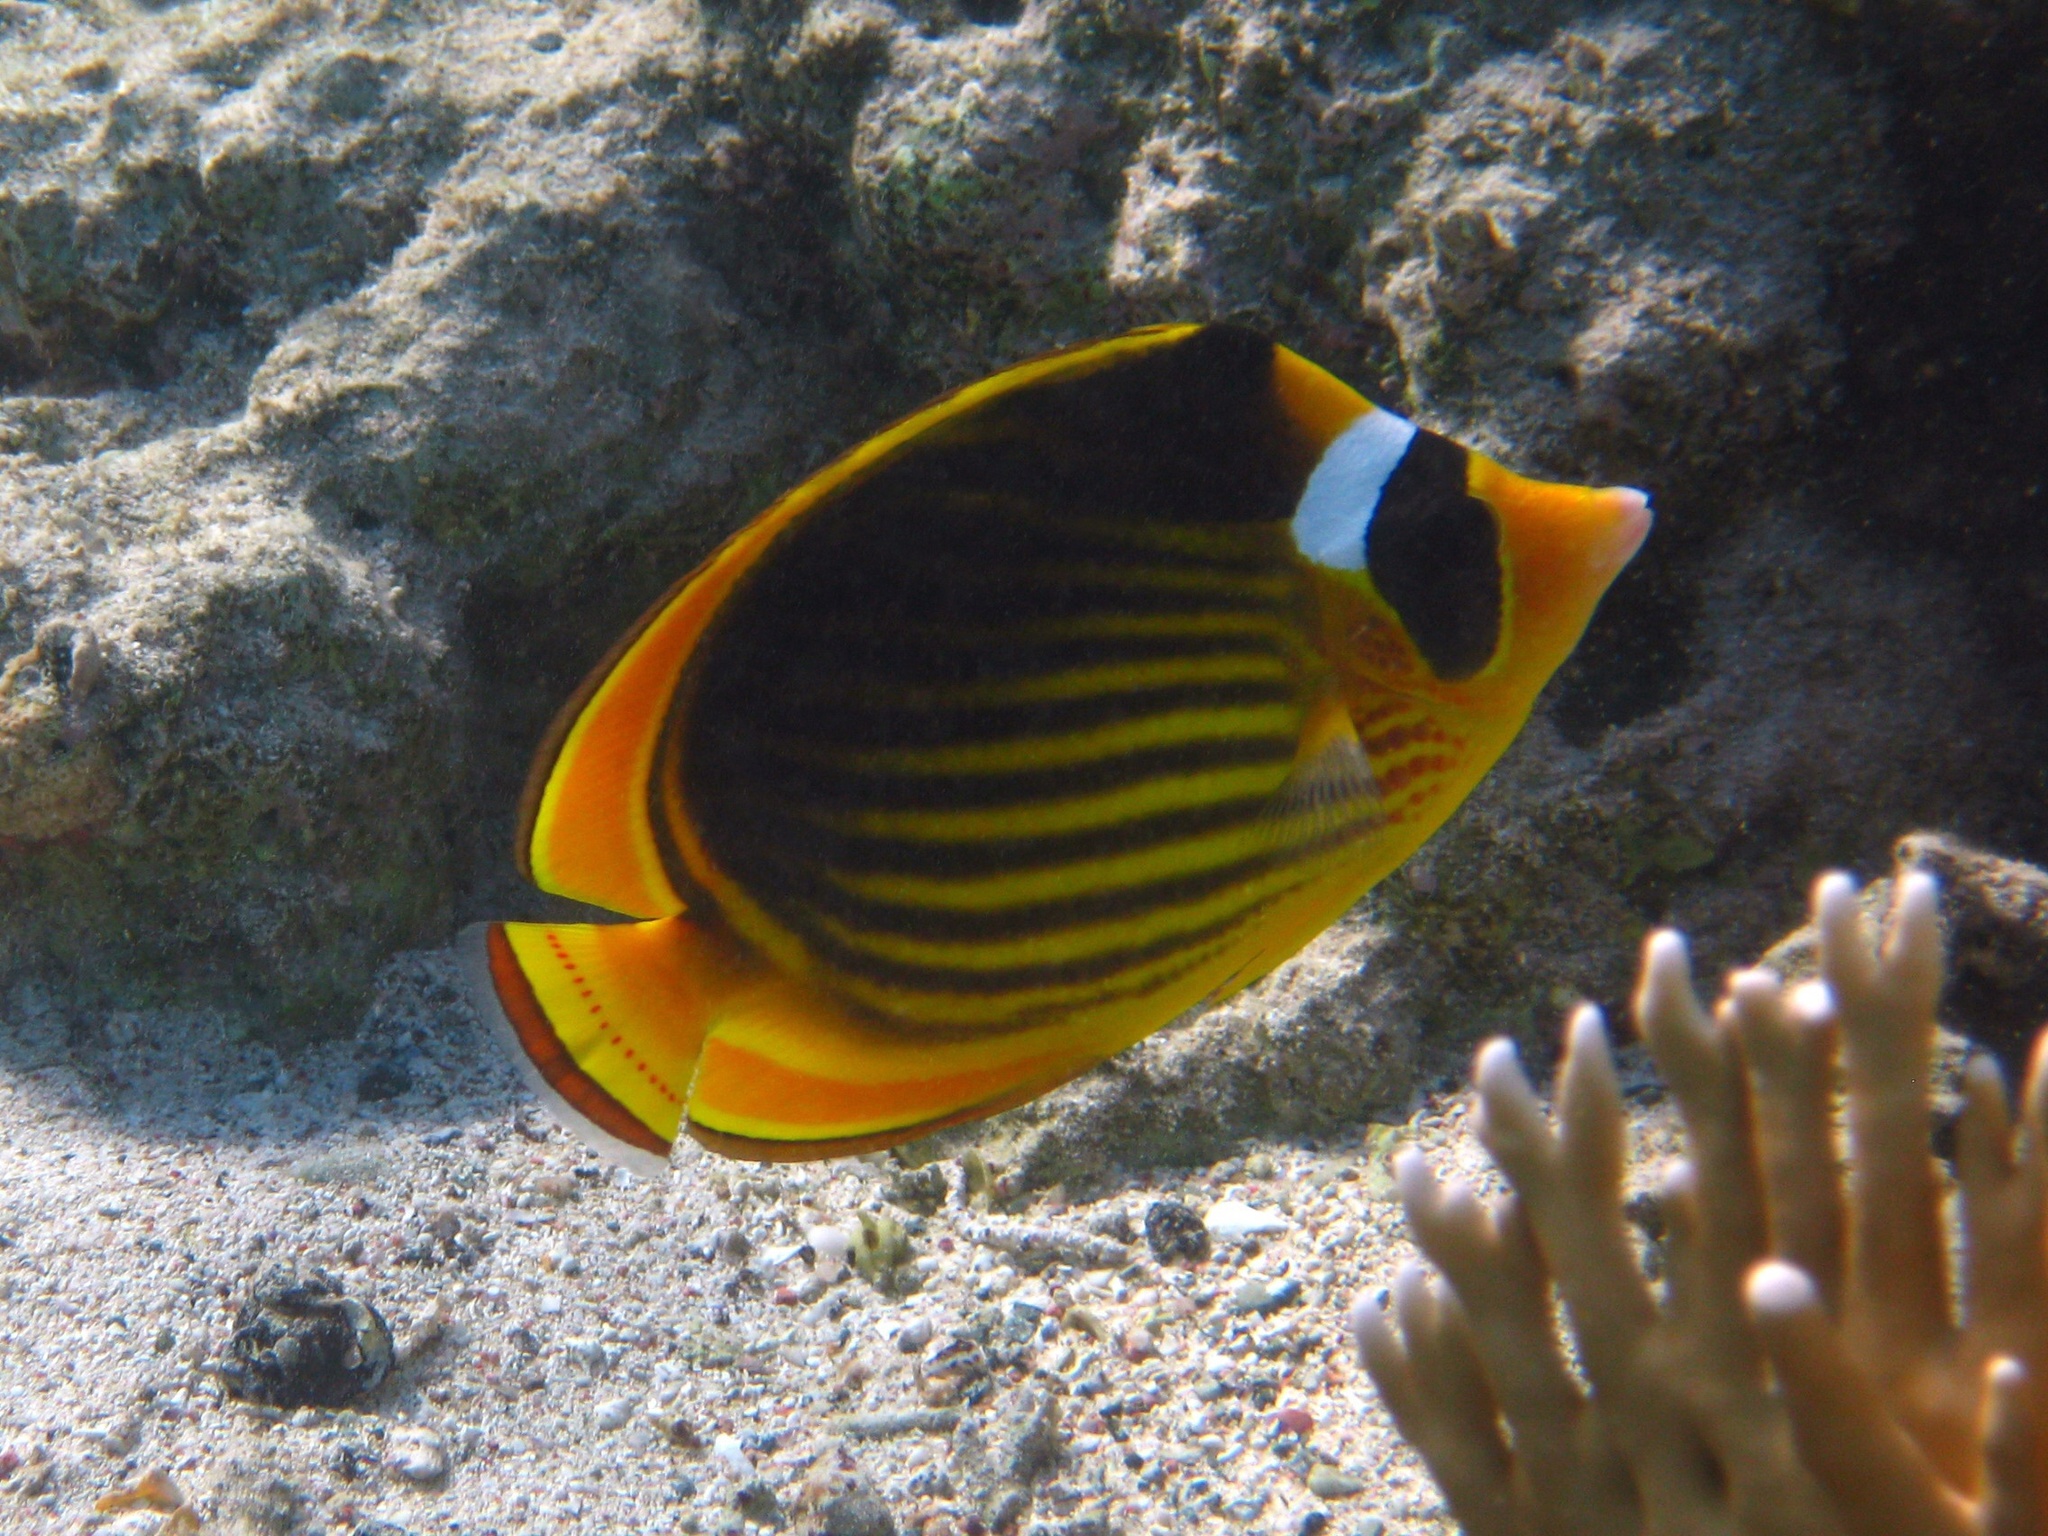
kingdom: Animalia
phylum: Chordata
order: Perciformes
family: Chaetodontidae
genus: Chaetodon
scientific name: Chaetodon fasciatus
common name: Diagonal butterflyfish
